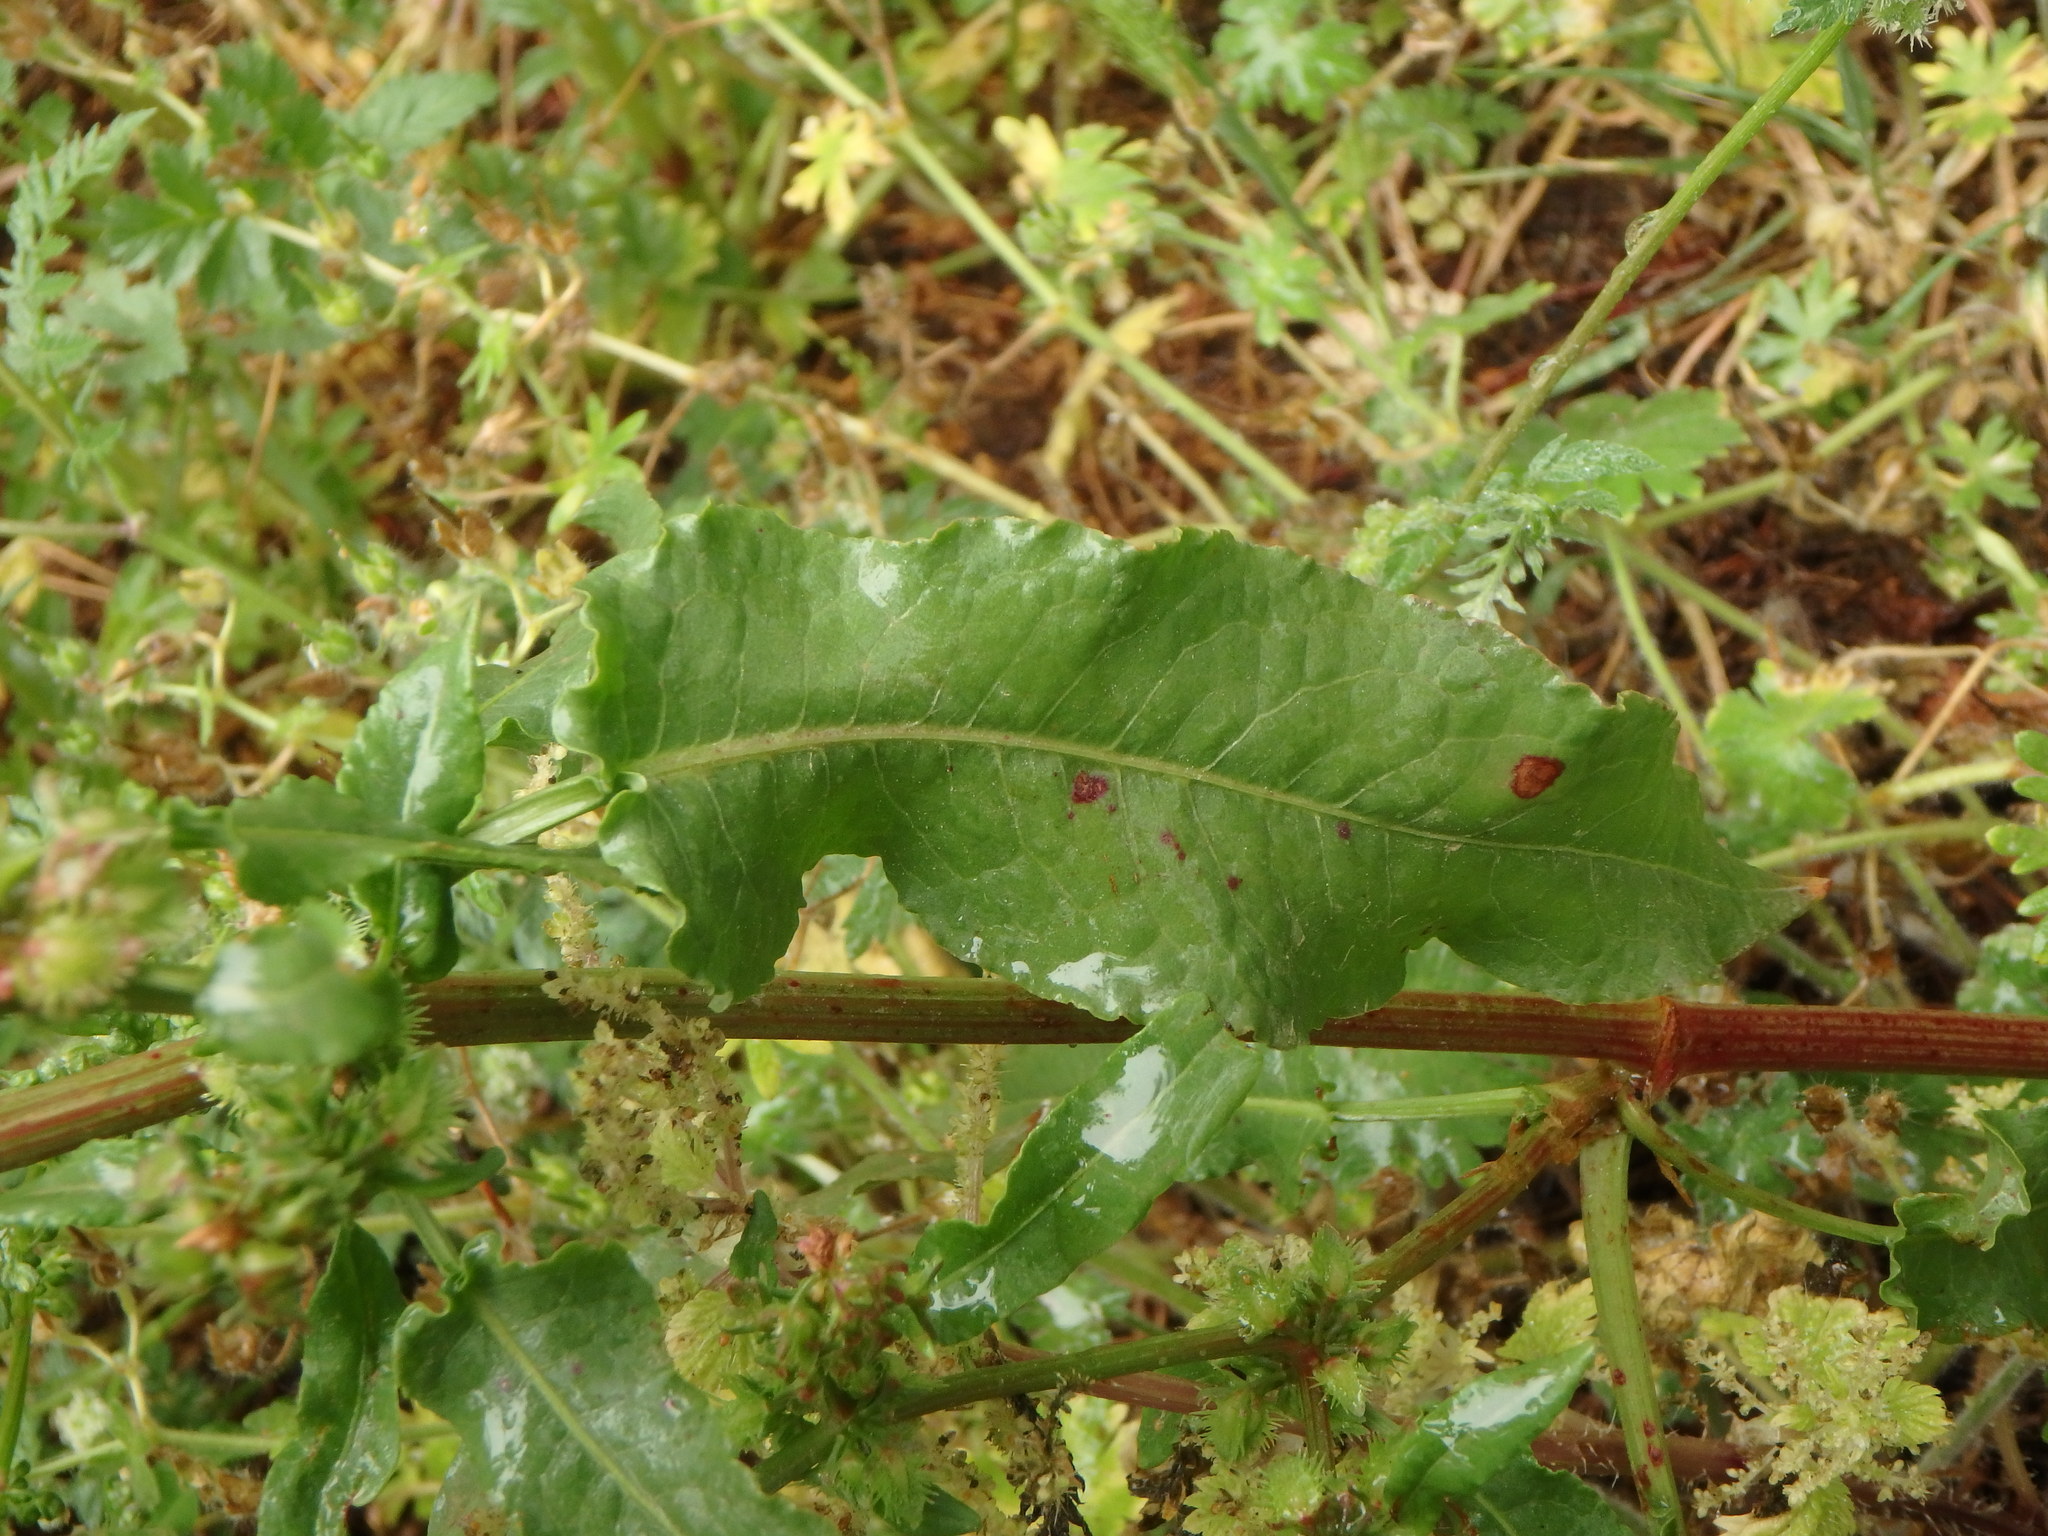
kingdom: Plantae
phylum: Tracheophyta
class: Magnoliopsida
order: Caryophyllales
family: Polygonaceae
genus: Rumex
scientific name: Rumex pulcher
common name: Fiddle dock
